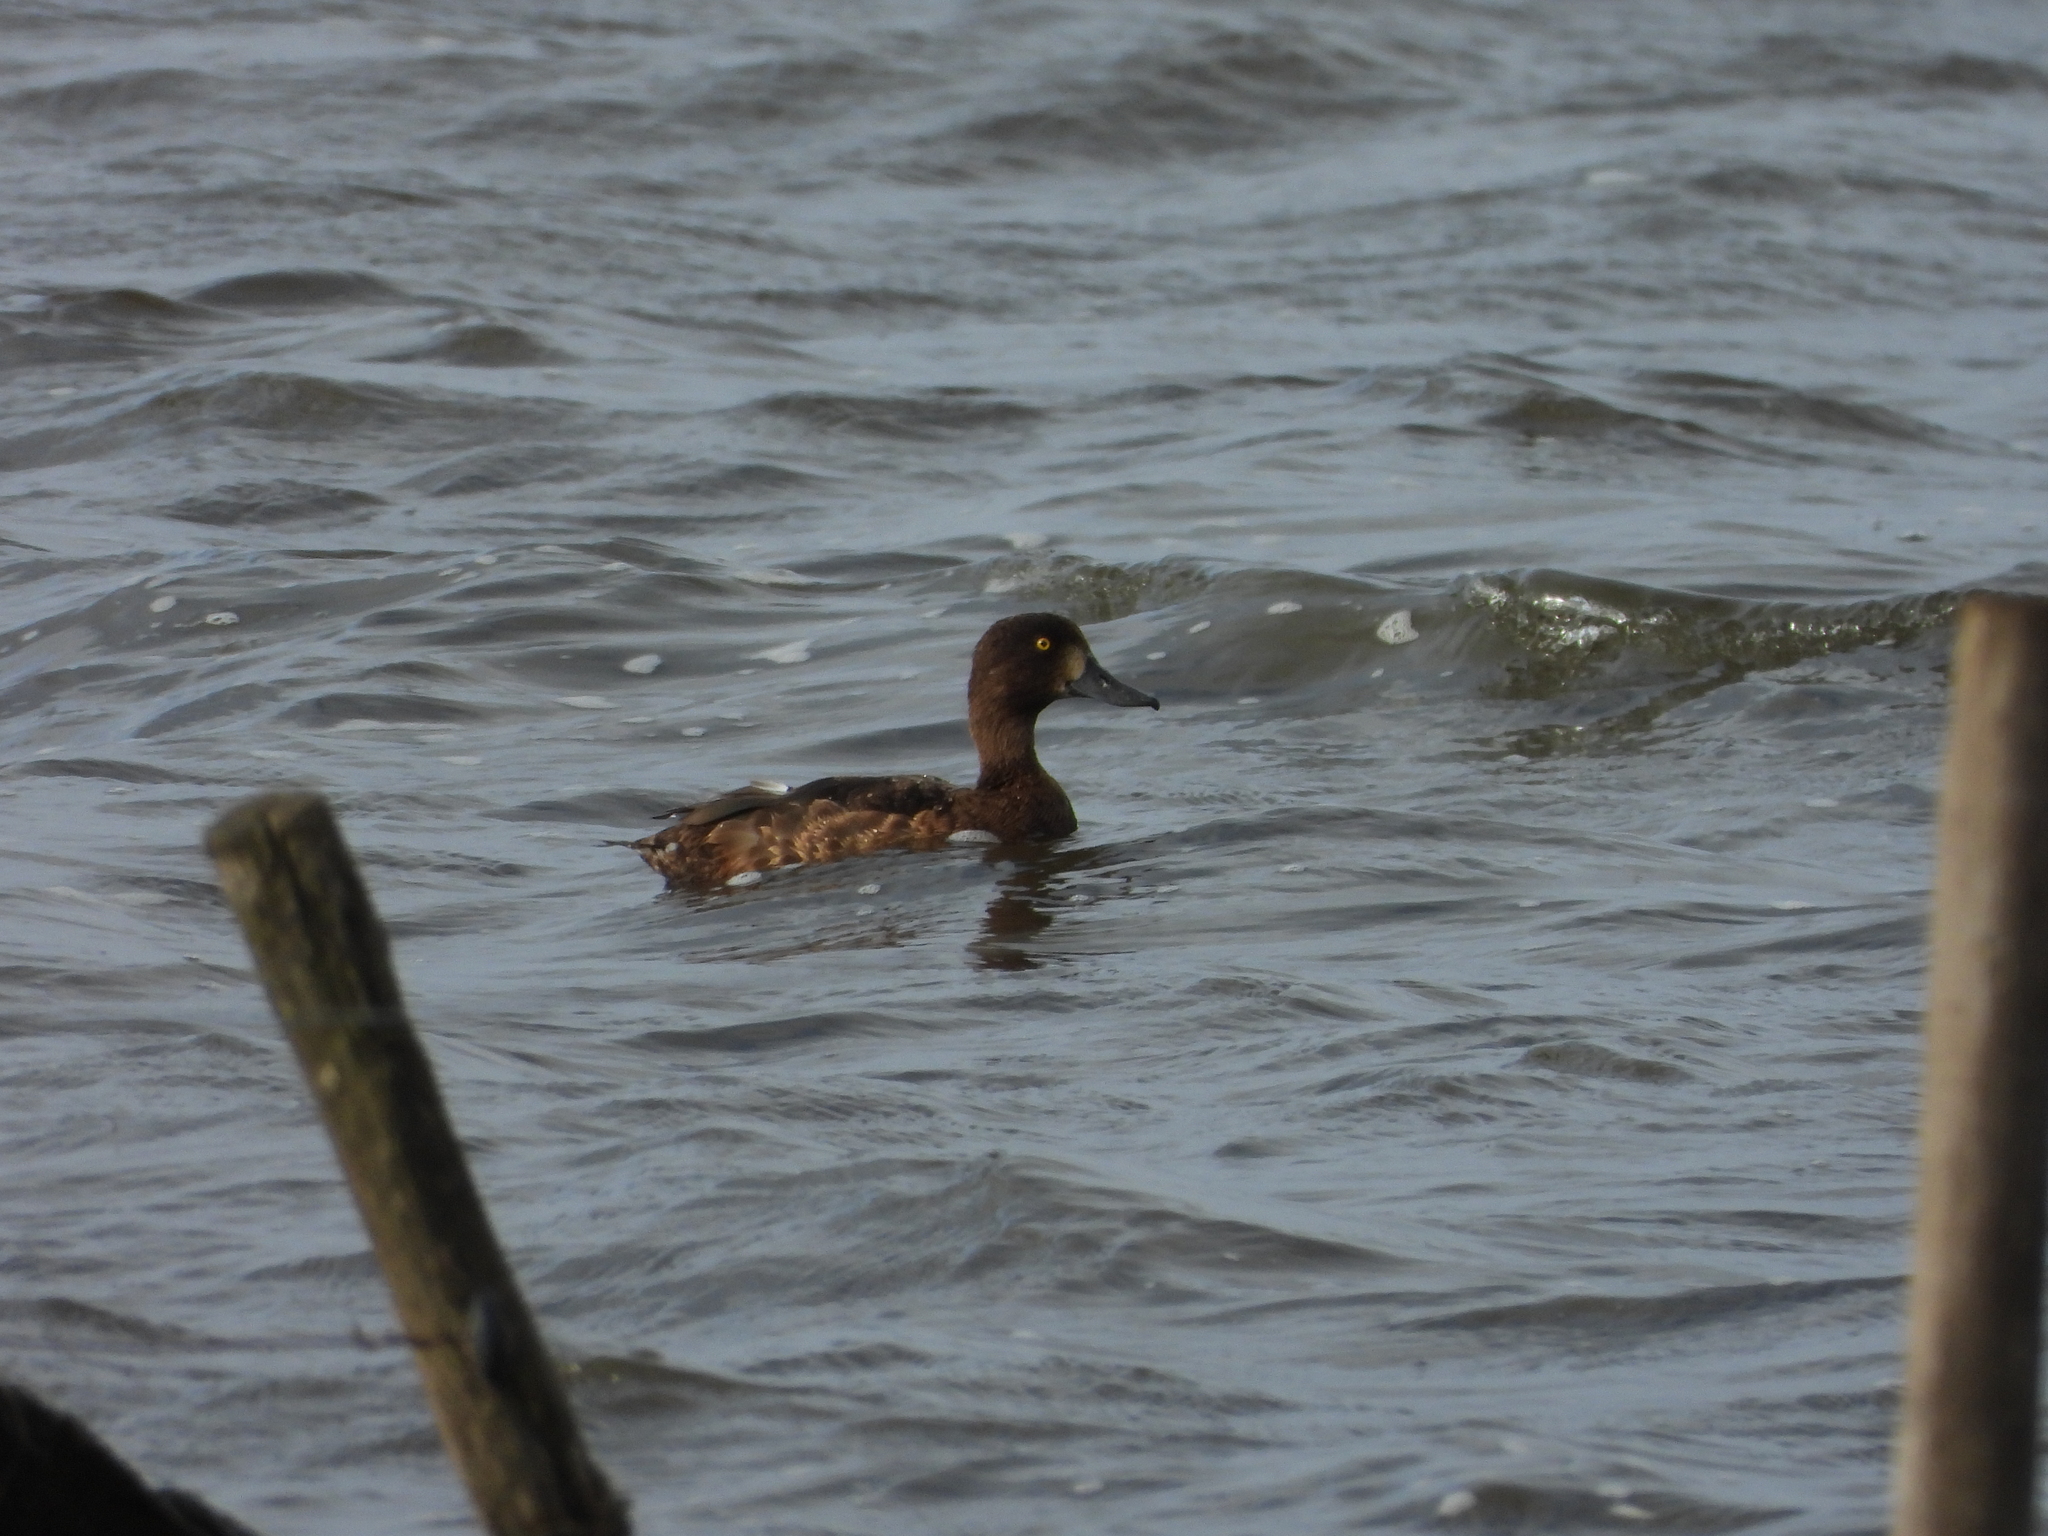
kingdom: Animalia
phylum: Chordata
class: Aves
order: Anseriformes
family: Anatidae
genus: Aythya
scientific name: Aythya fuligula
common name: Tufted duck
